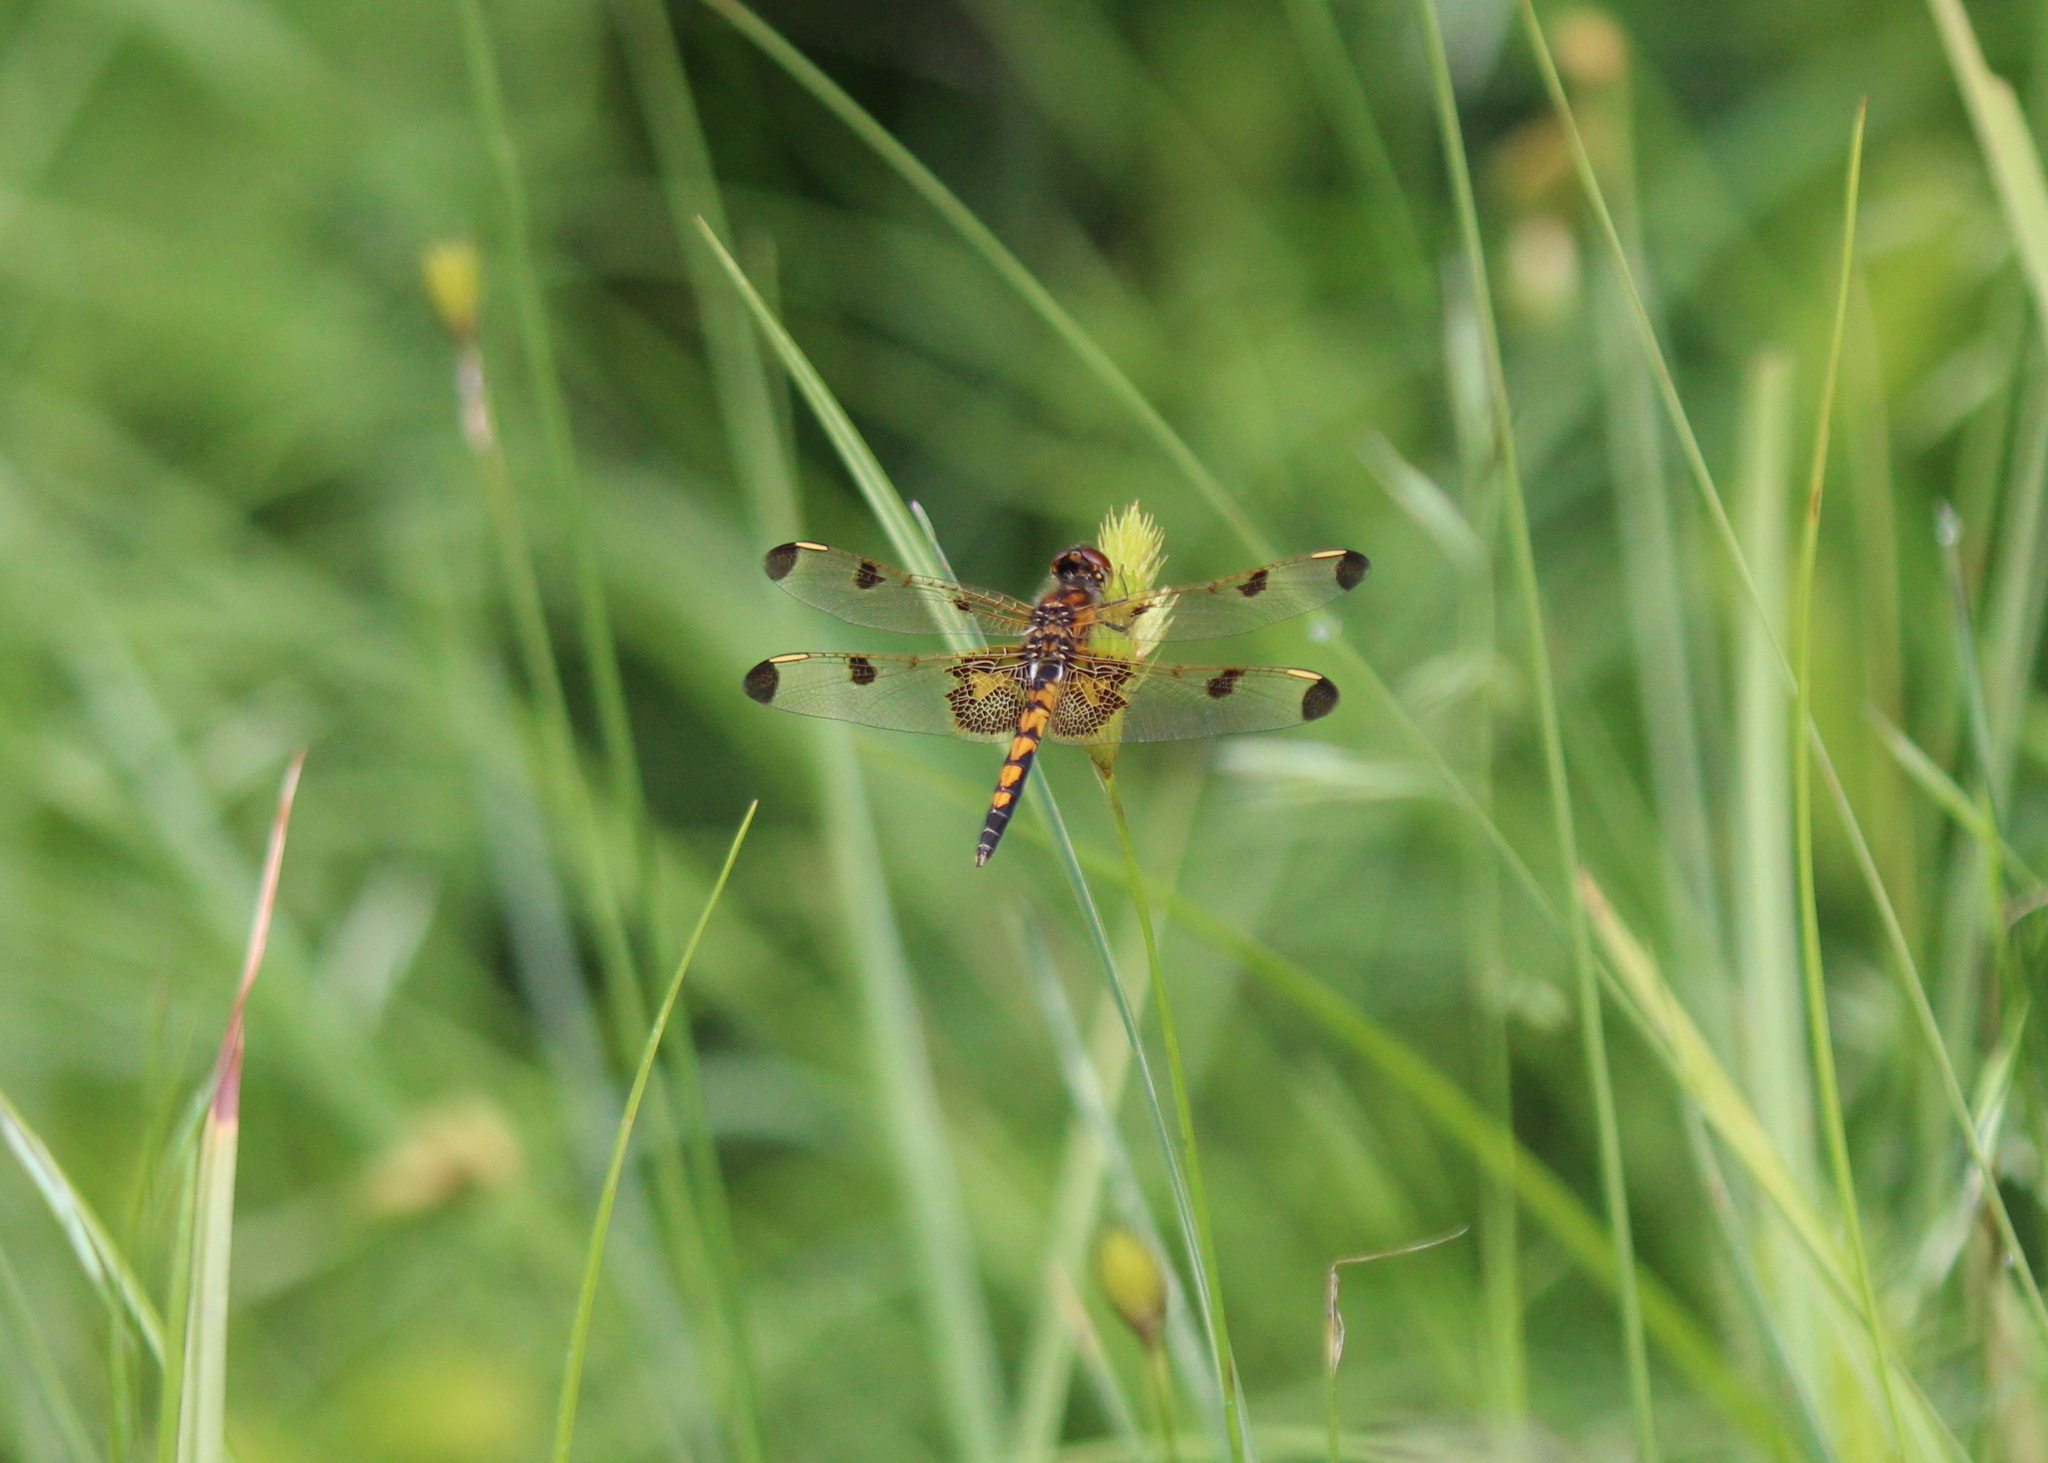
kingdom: Animalia
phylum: Arthropoda
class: Insecta
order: Odonata
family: Libellulidae
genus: Celithemis
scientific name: Celithemis elisa
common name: Calico pennant
